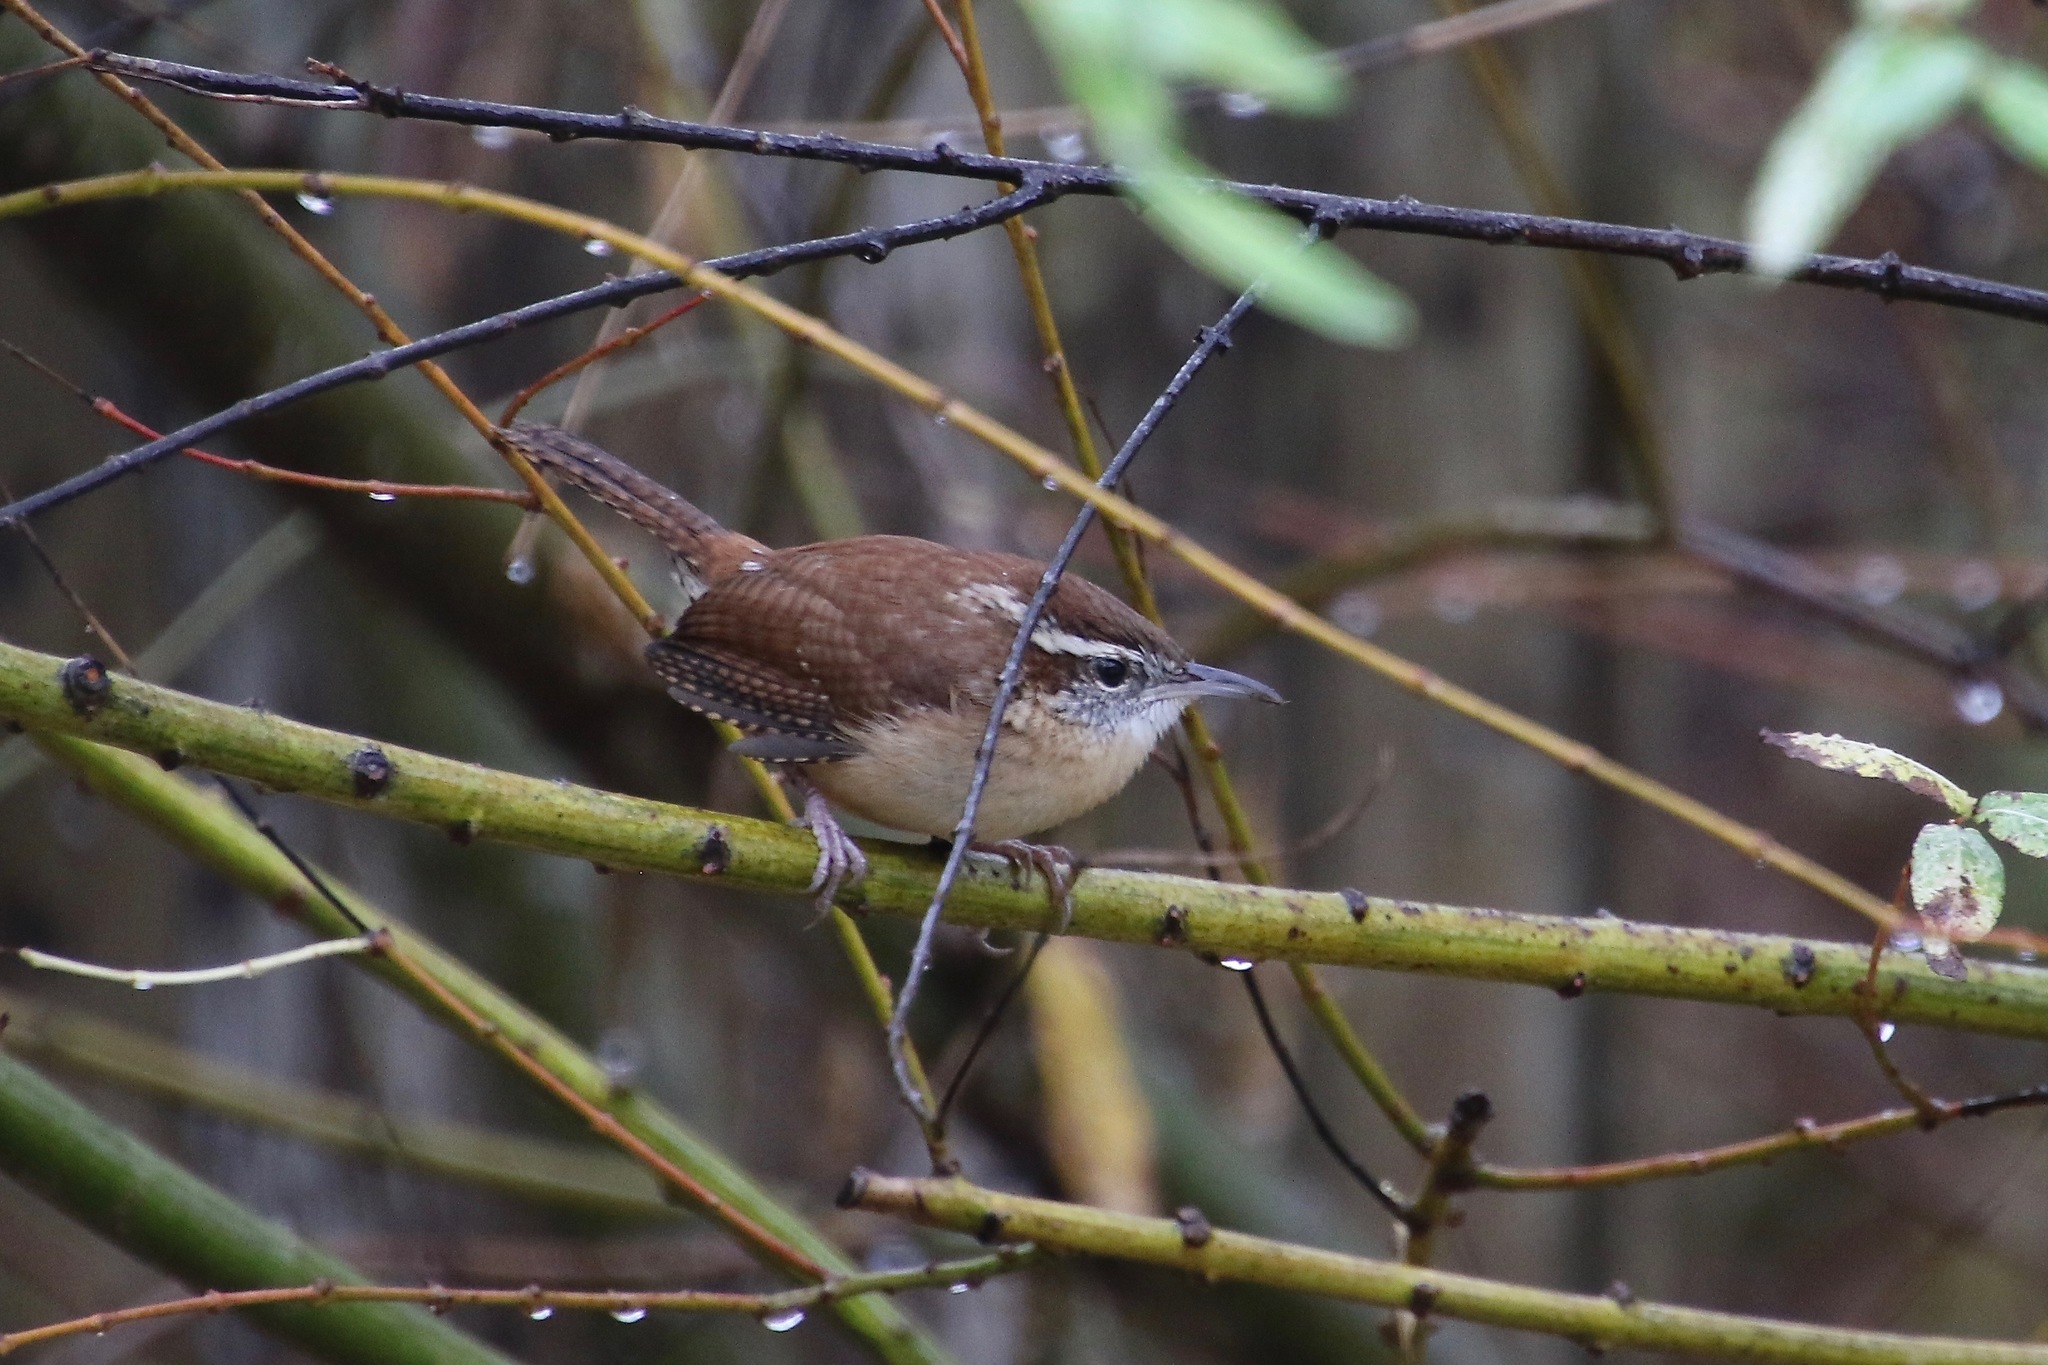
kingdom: Animalia
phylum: Chordata
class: Aves
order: Passeriformes
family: Troglodytidae
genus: Thryothorus
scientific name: Thryothorus ludovicianus
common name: Carolina wren
